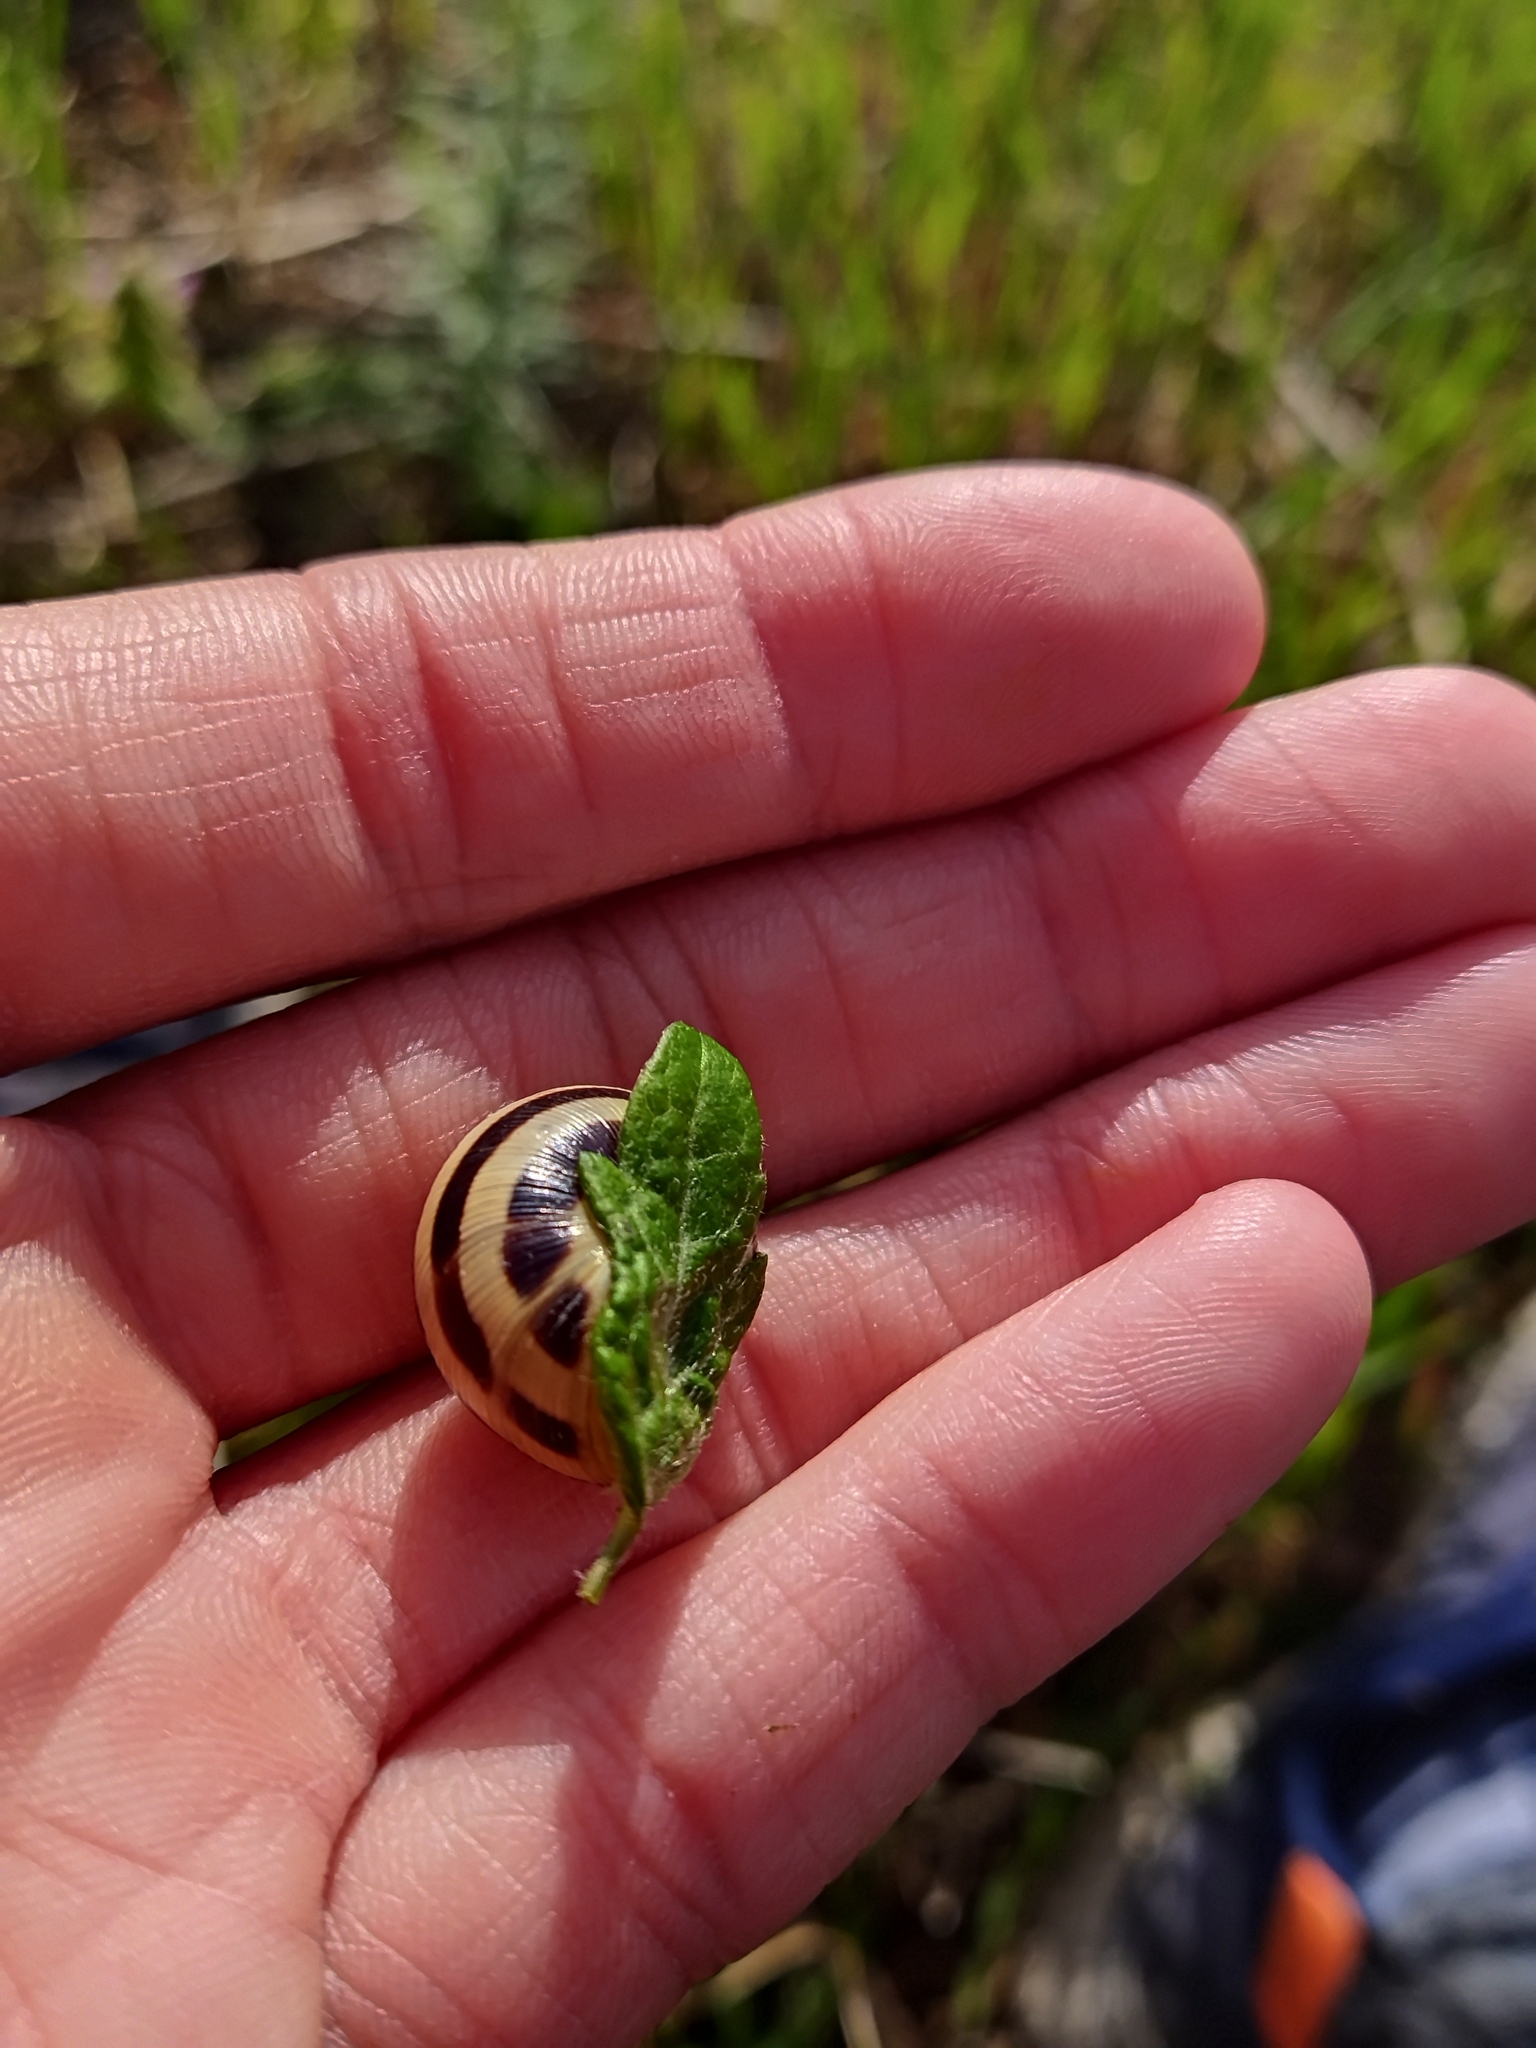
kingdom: Animalia
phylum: Mollusca
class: Gastropoda
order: Stylommatophora
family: Helicidae
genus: Caucasotachea
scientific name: Caucasotachea vindobonensis
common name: European helicid land snail
